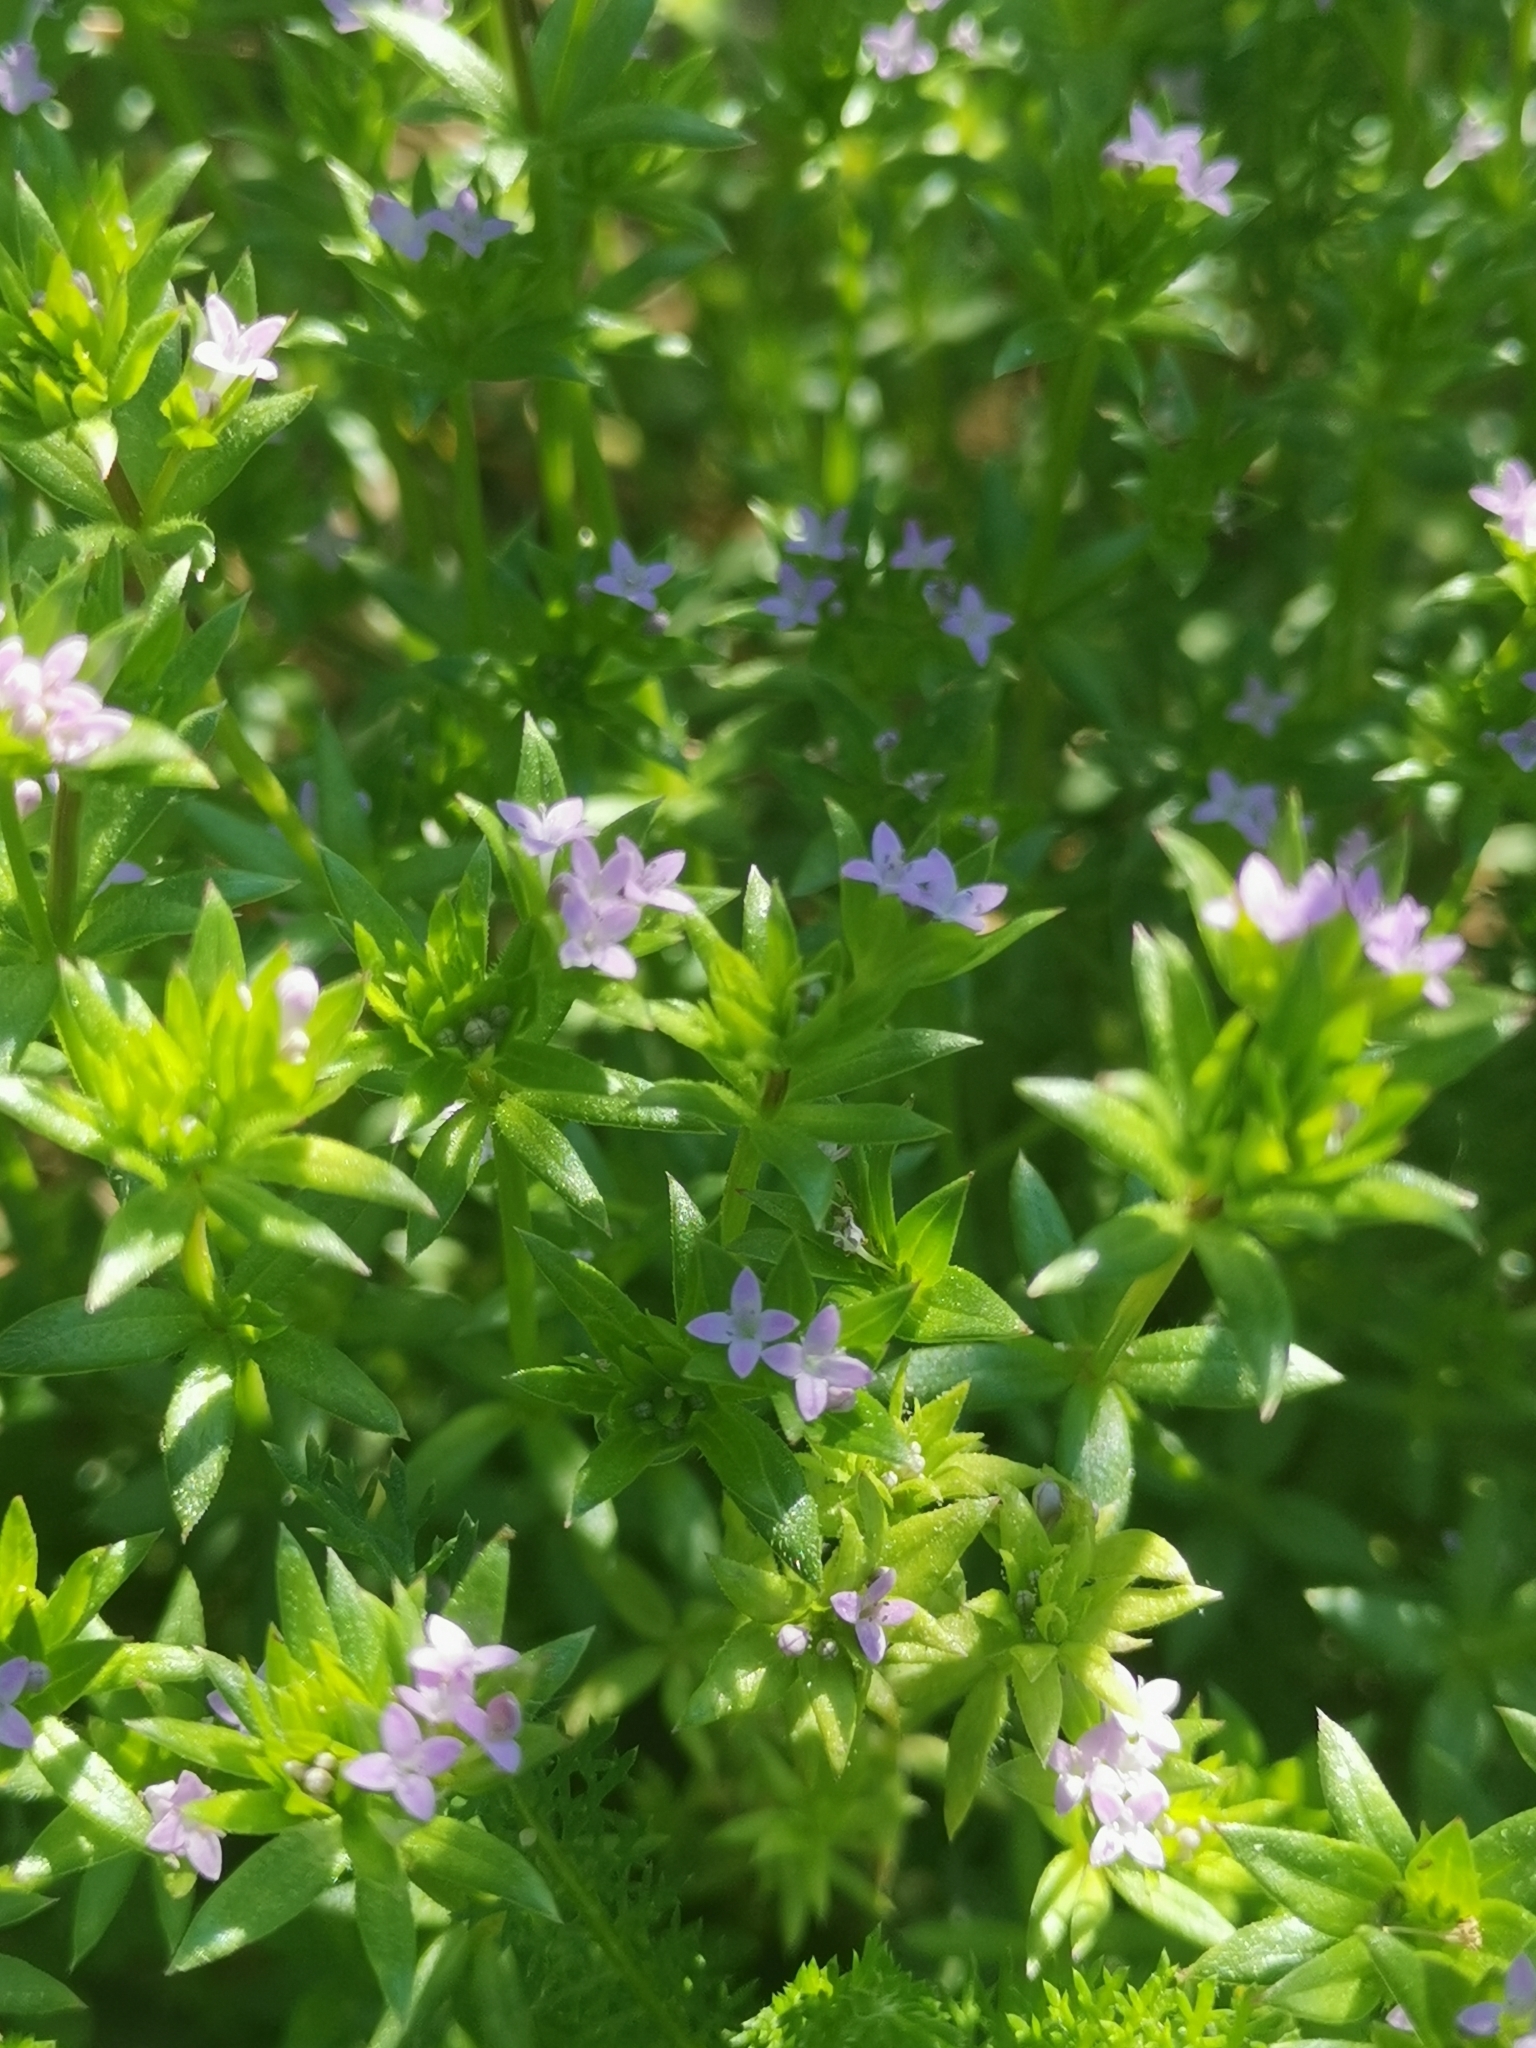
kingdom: Plantae
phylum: Tracheophyta
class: Magnoliopsida
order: Gentianales
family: Rubiaceae
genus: Sherardia
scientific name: Sherardia arvensis
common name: Field madder
